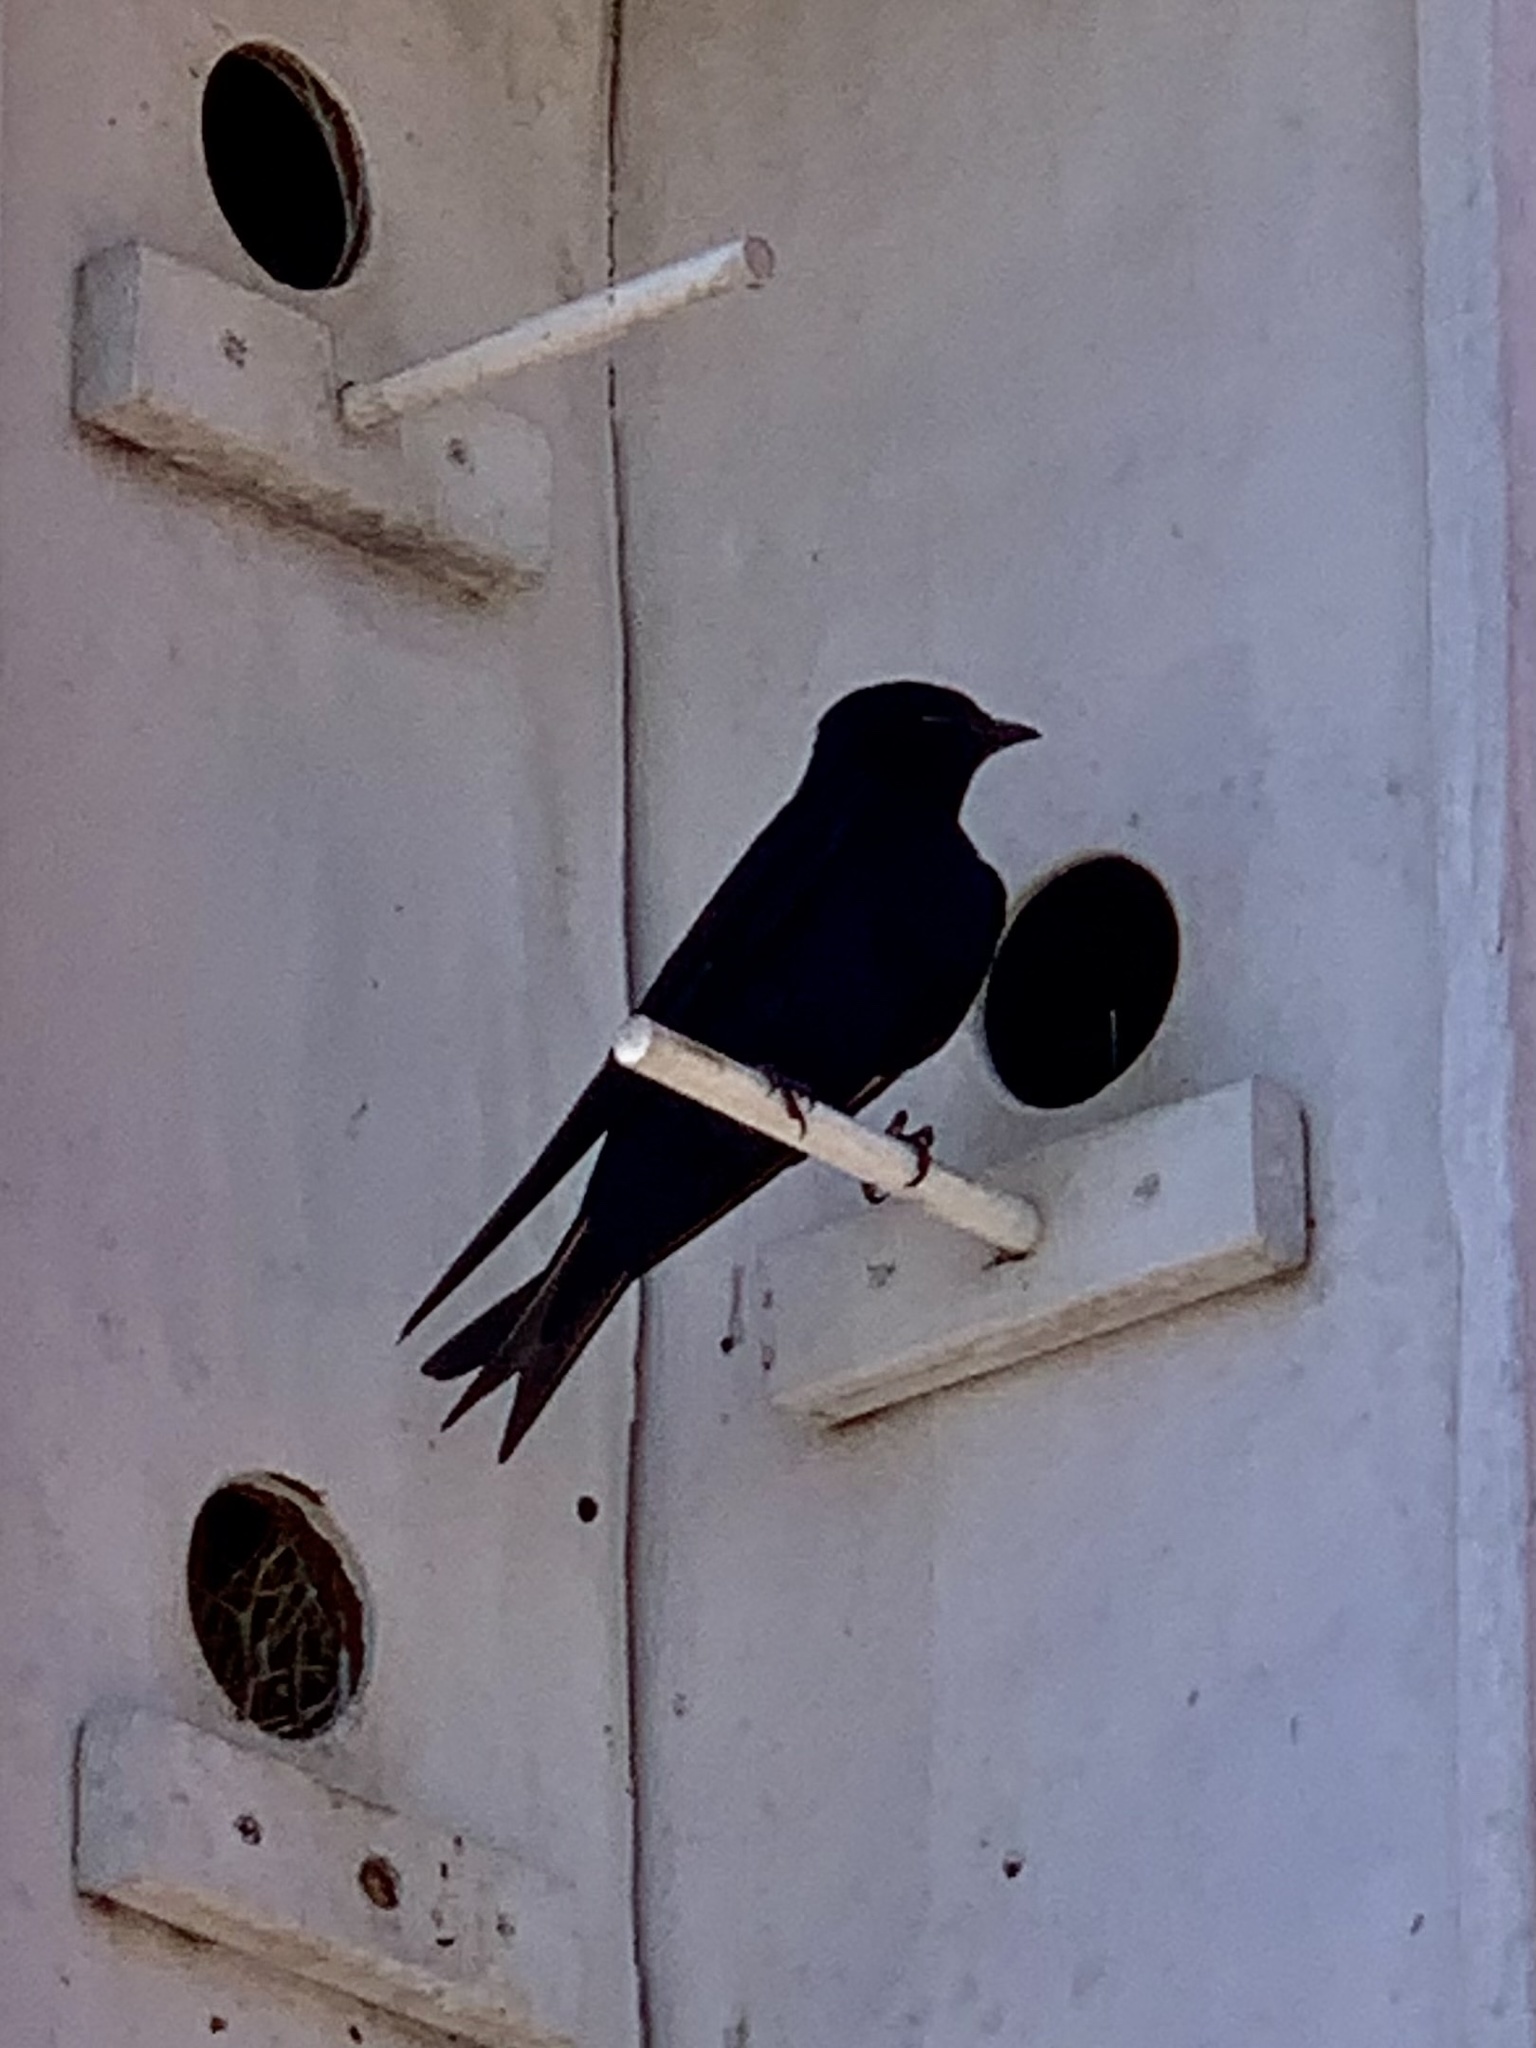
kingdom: Animalia
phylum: Chordata
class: Aves
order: Passeriformes
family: Hirundinidae
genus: Progne
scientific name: Progne subis
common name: Purple martin
